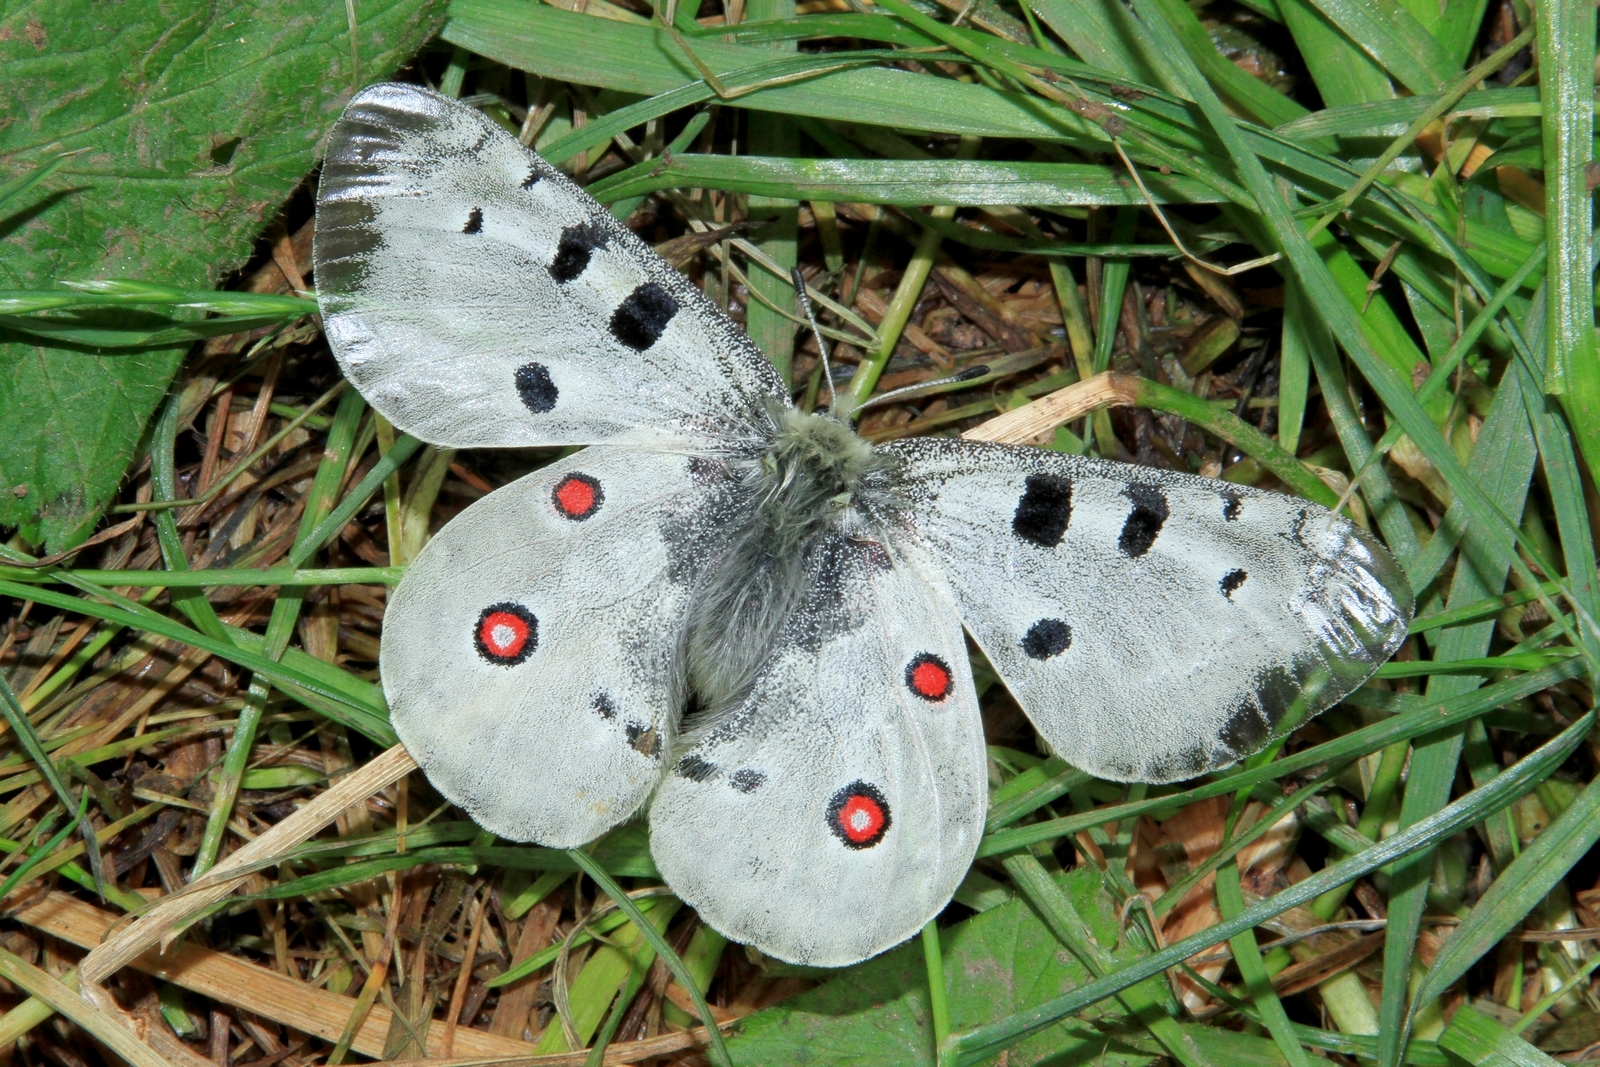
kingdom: Animalia
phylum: Arthropoda
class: Insecta
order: Lepidoptera
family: Papilionidae
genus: Parnassius
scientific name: Parnassius apollo
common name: Apollo
